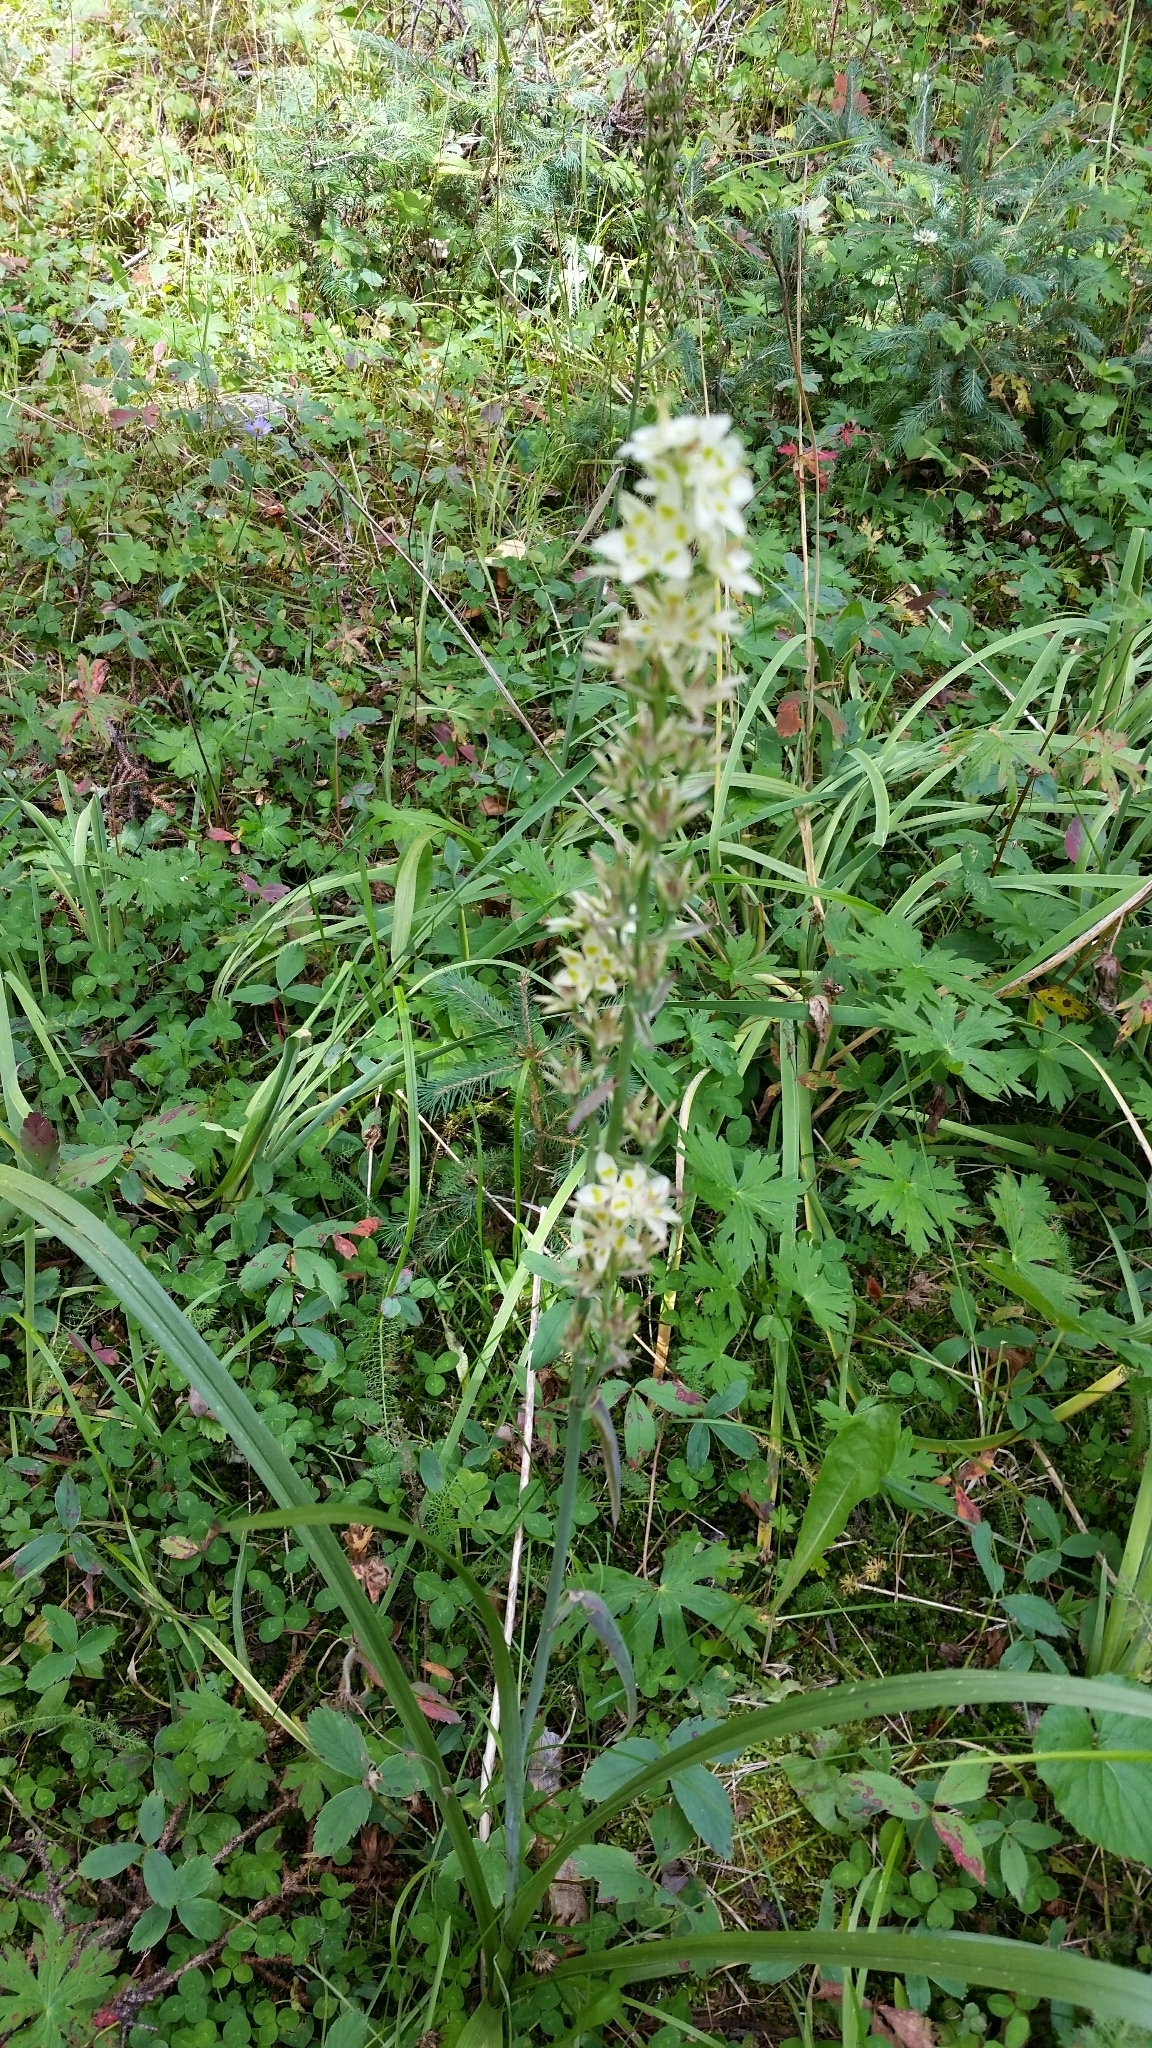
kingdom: Plantae
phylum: Tracheophyta
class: Liliopsida
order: Liliales
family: Melanthiaceae
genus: Anticlea
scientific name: Anticlea elegans
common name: Mountain death camas
